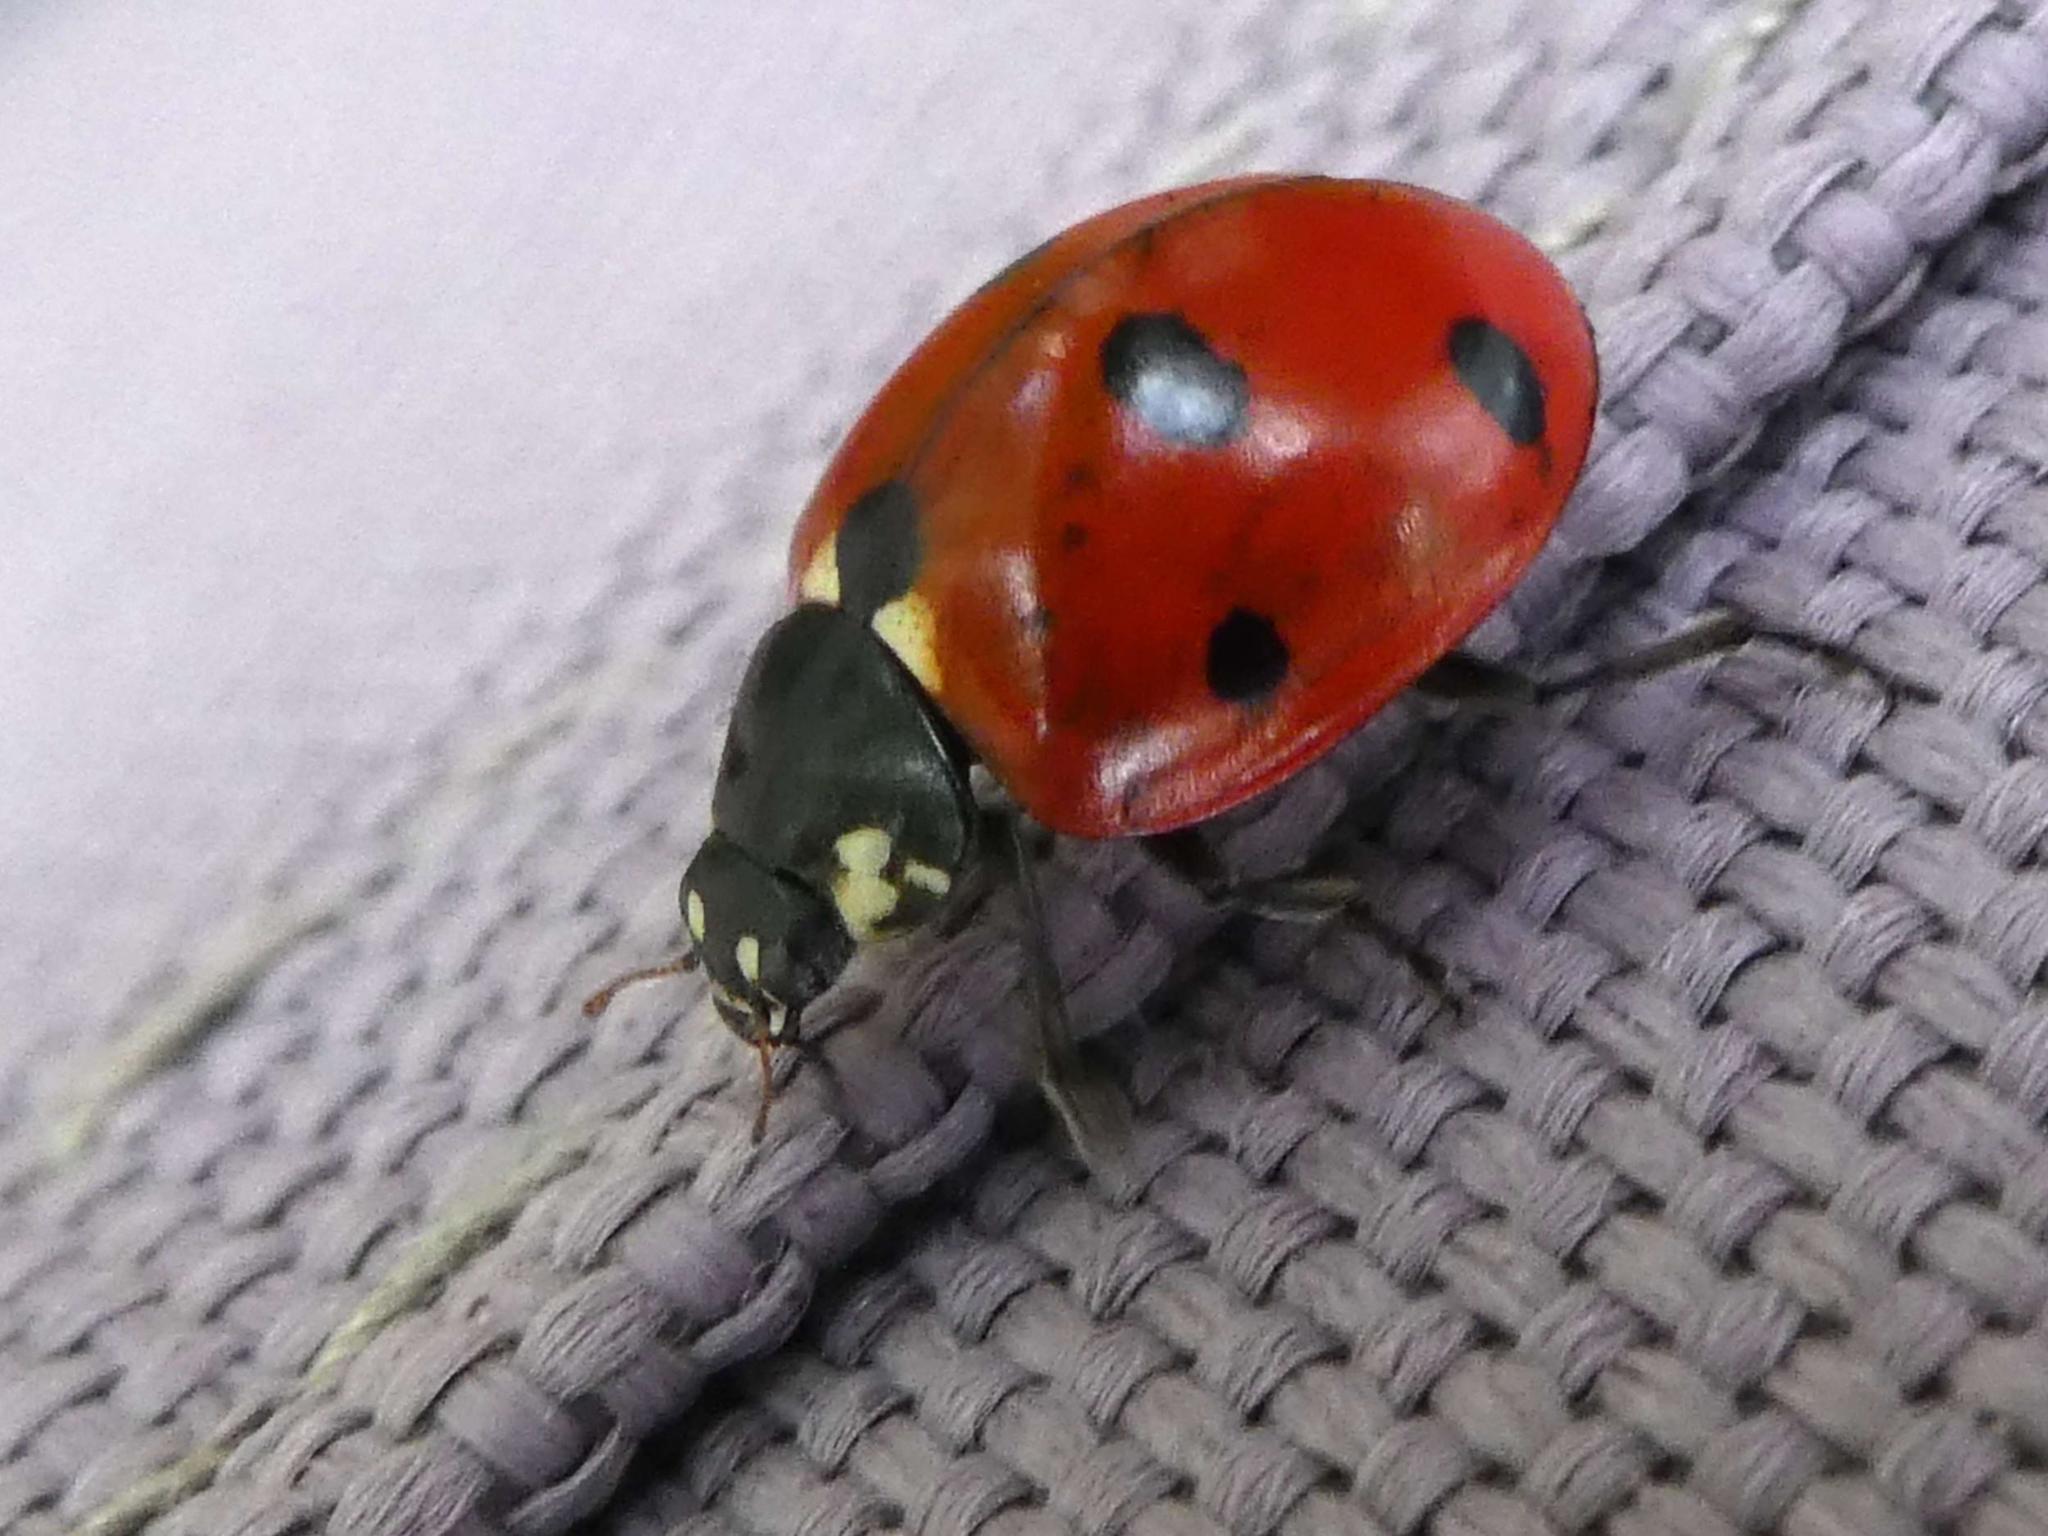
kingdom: Animalia
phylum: Arthropoda
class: Insecta
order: Coleoptera
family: Coccinellidae
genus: Coccinella
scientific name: Coccinella septempunctata
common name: Sevenspotted lady beetle
